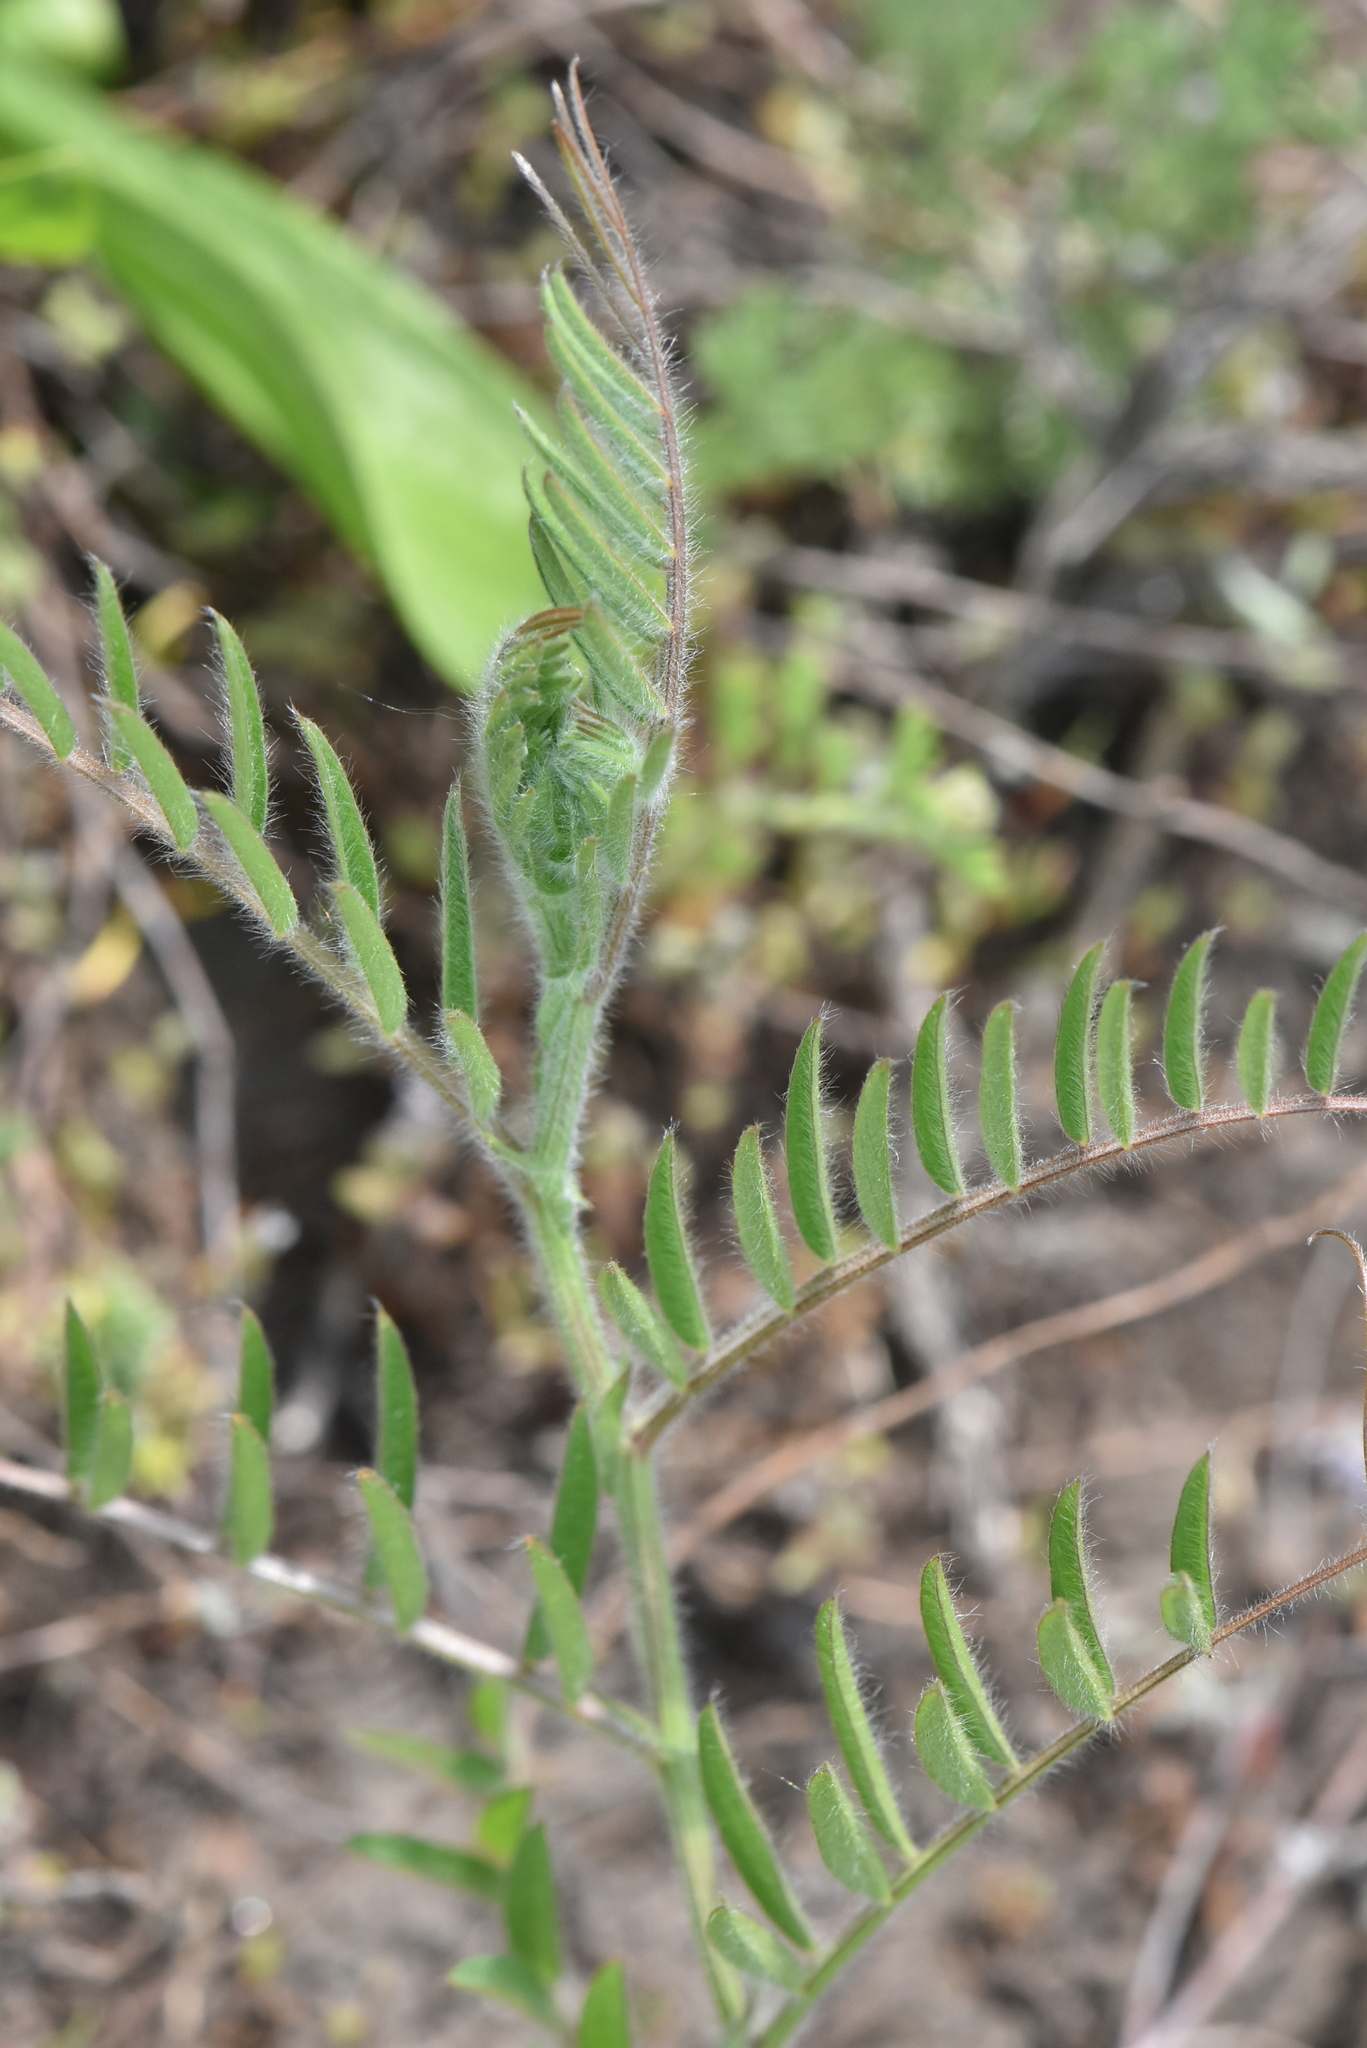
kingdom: Plantae
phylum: Tracheophyta
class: Magnoliopsida
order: Fabales
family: Fabaceae
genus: Vicia
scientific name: Vicia villosa
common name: Fodder vetch
